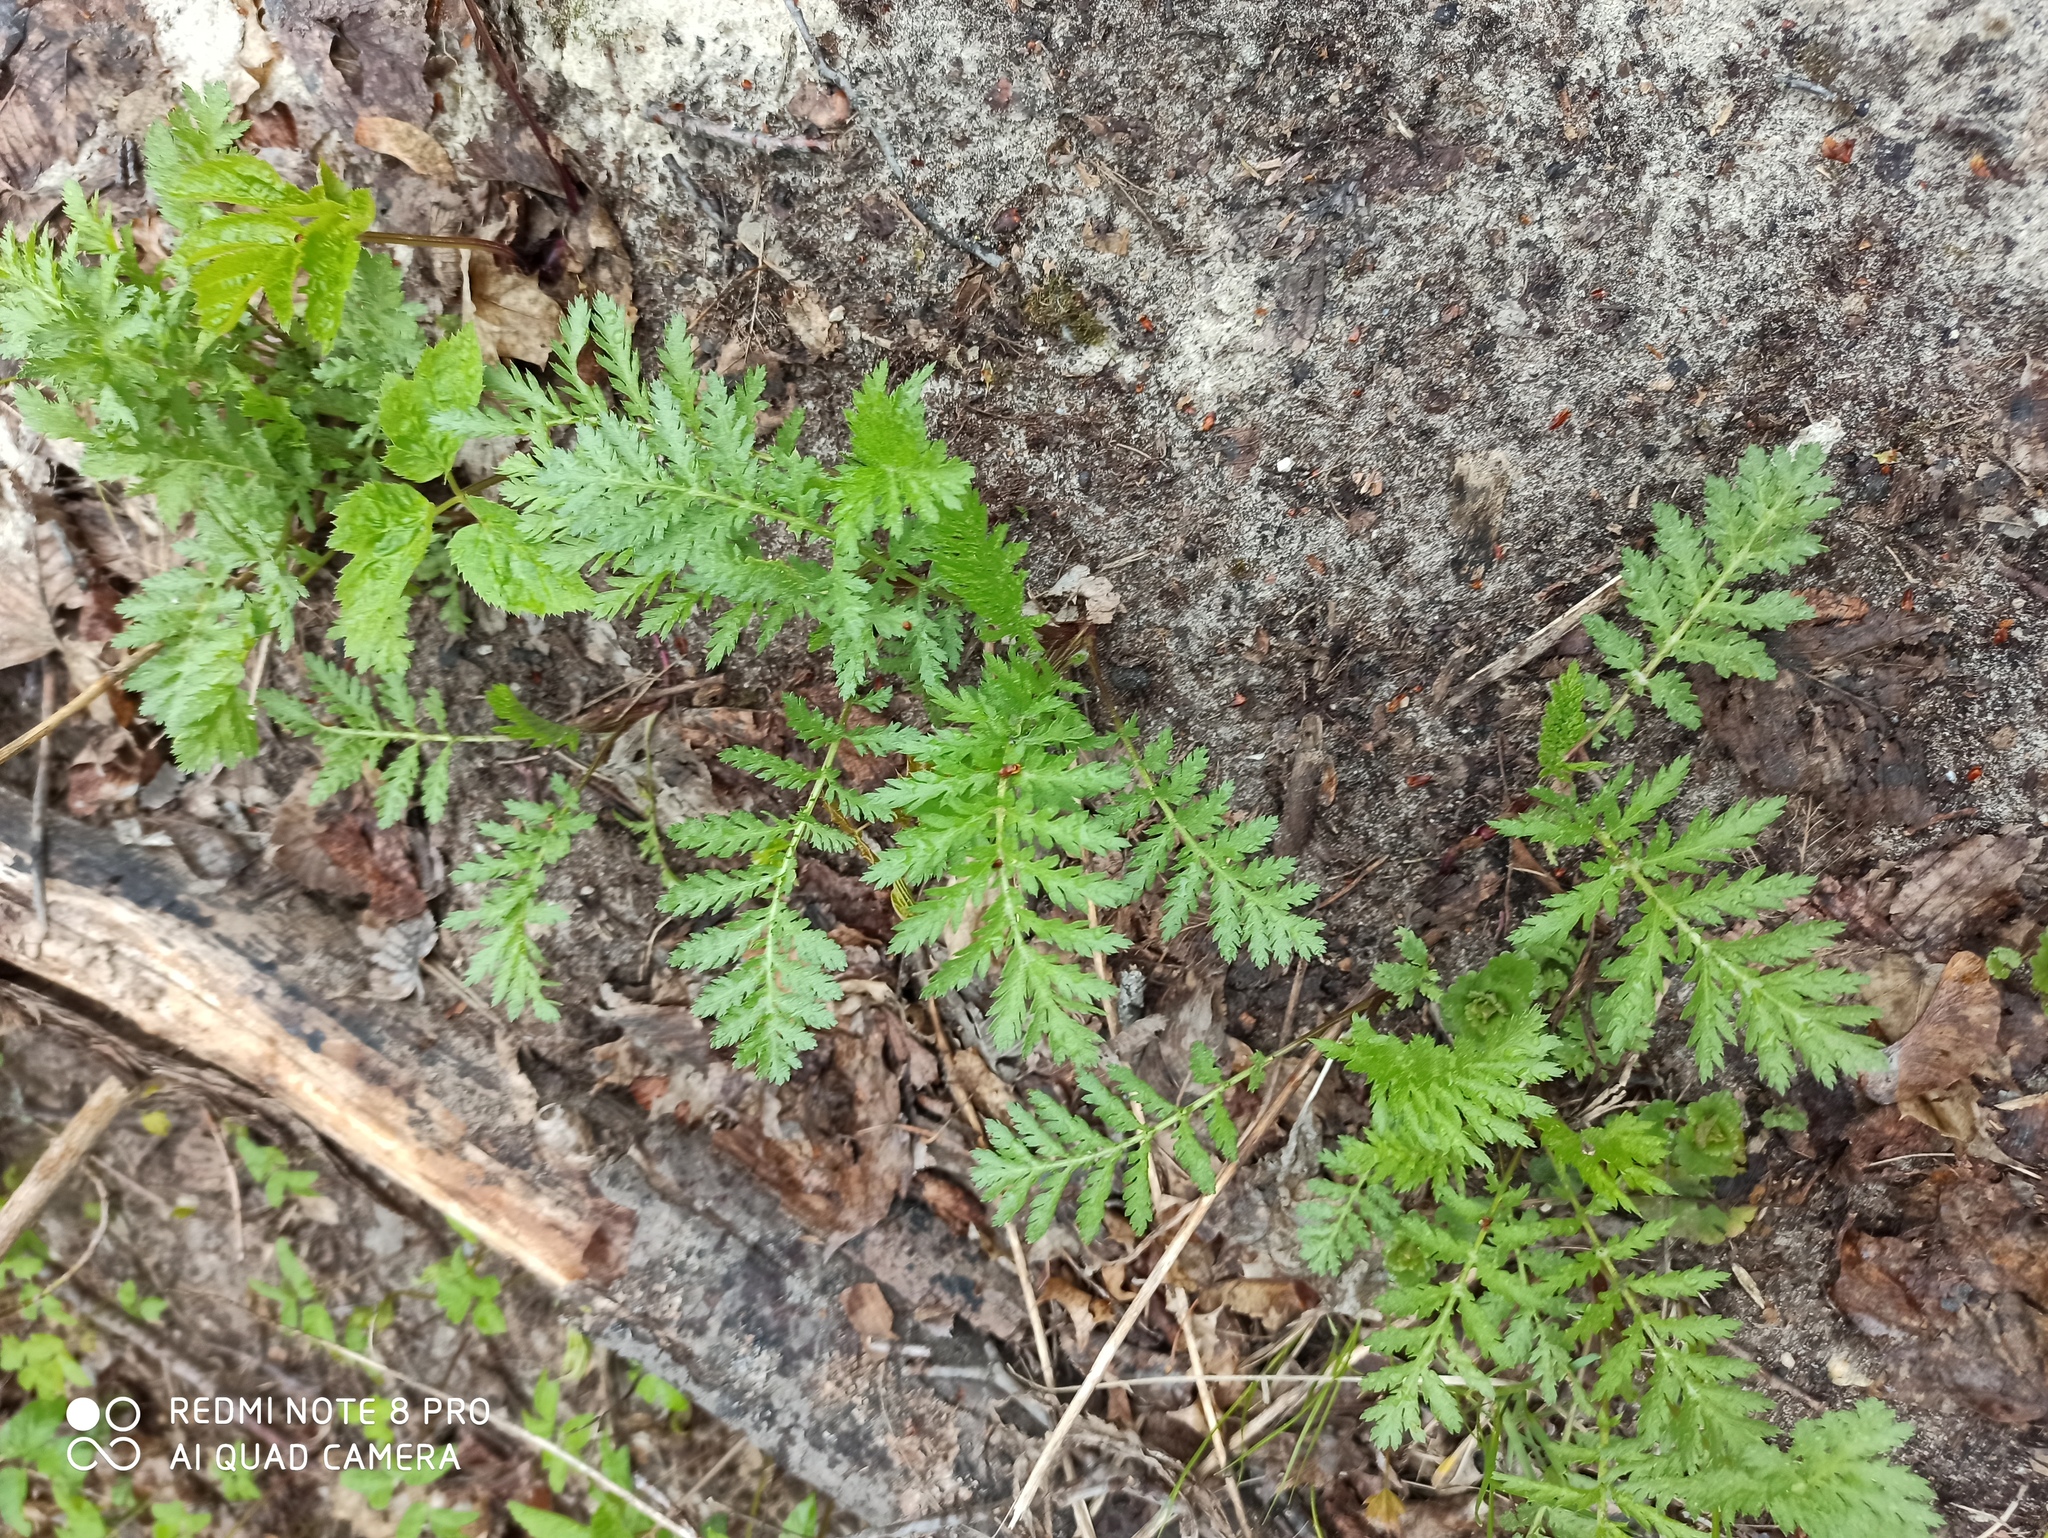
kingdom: Plantae
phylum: Tracheophyta
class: Magnoliopsida
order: Asterales
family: Asteraceae
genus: Tanacetum
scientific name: Tanacetum vulgare
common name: Common tansy
